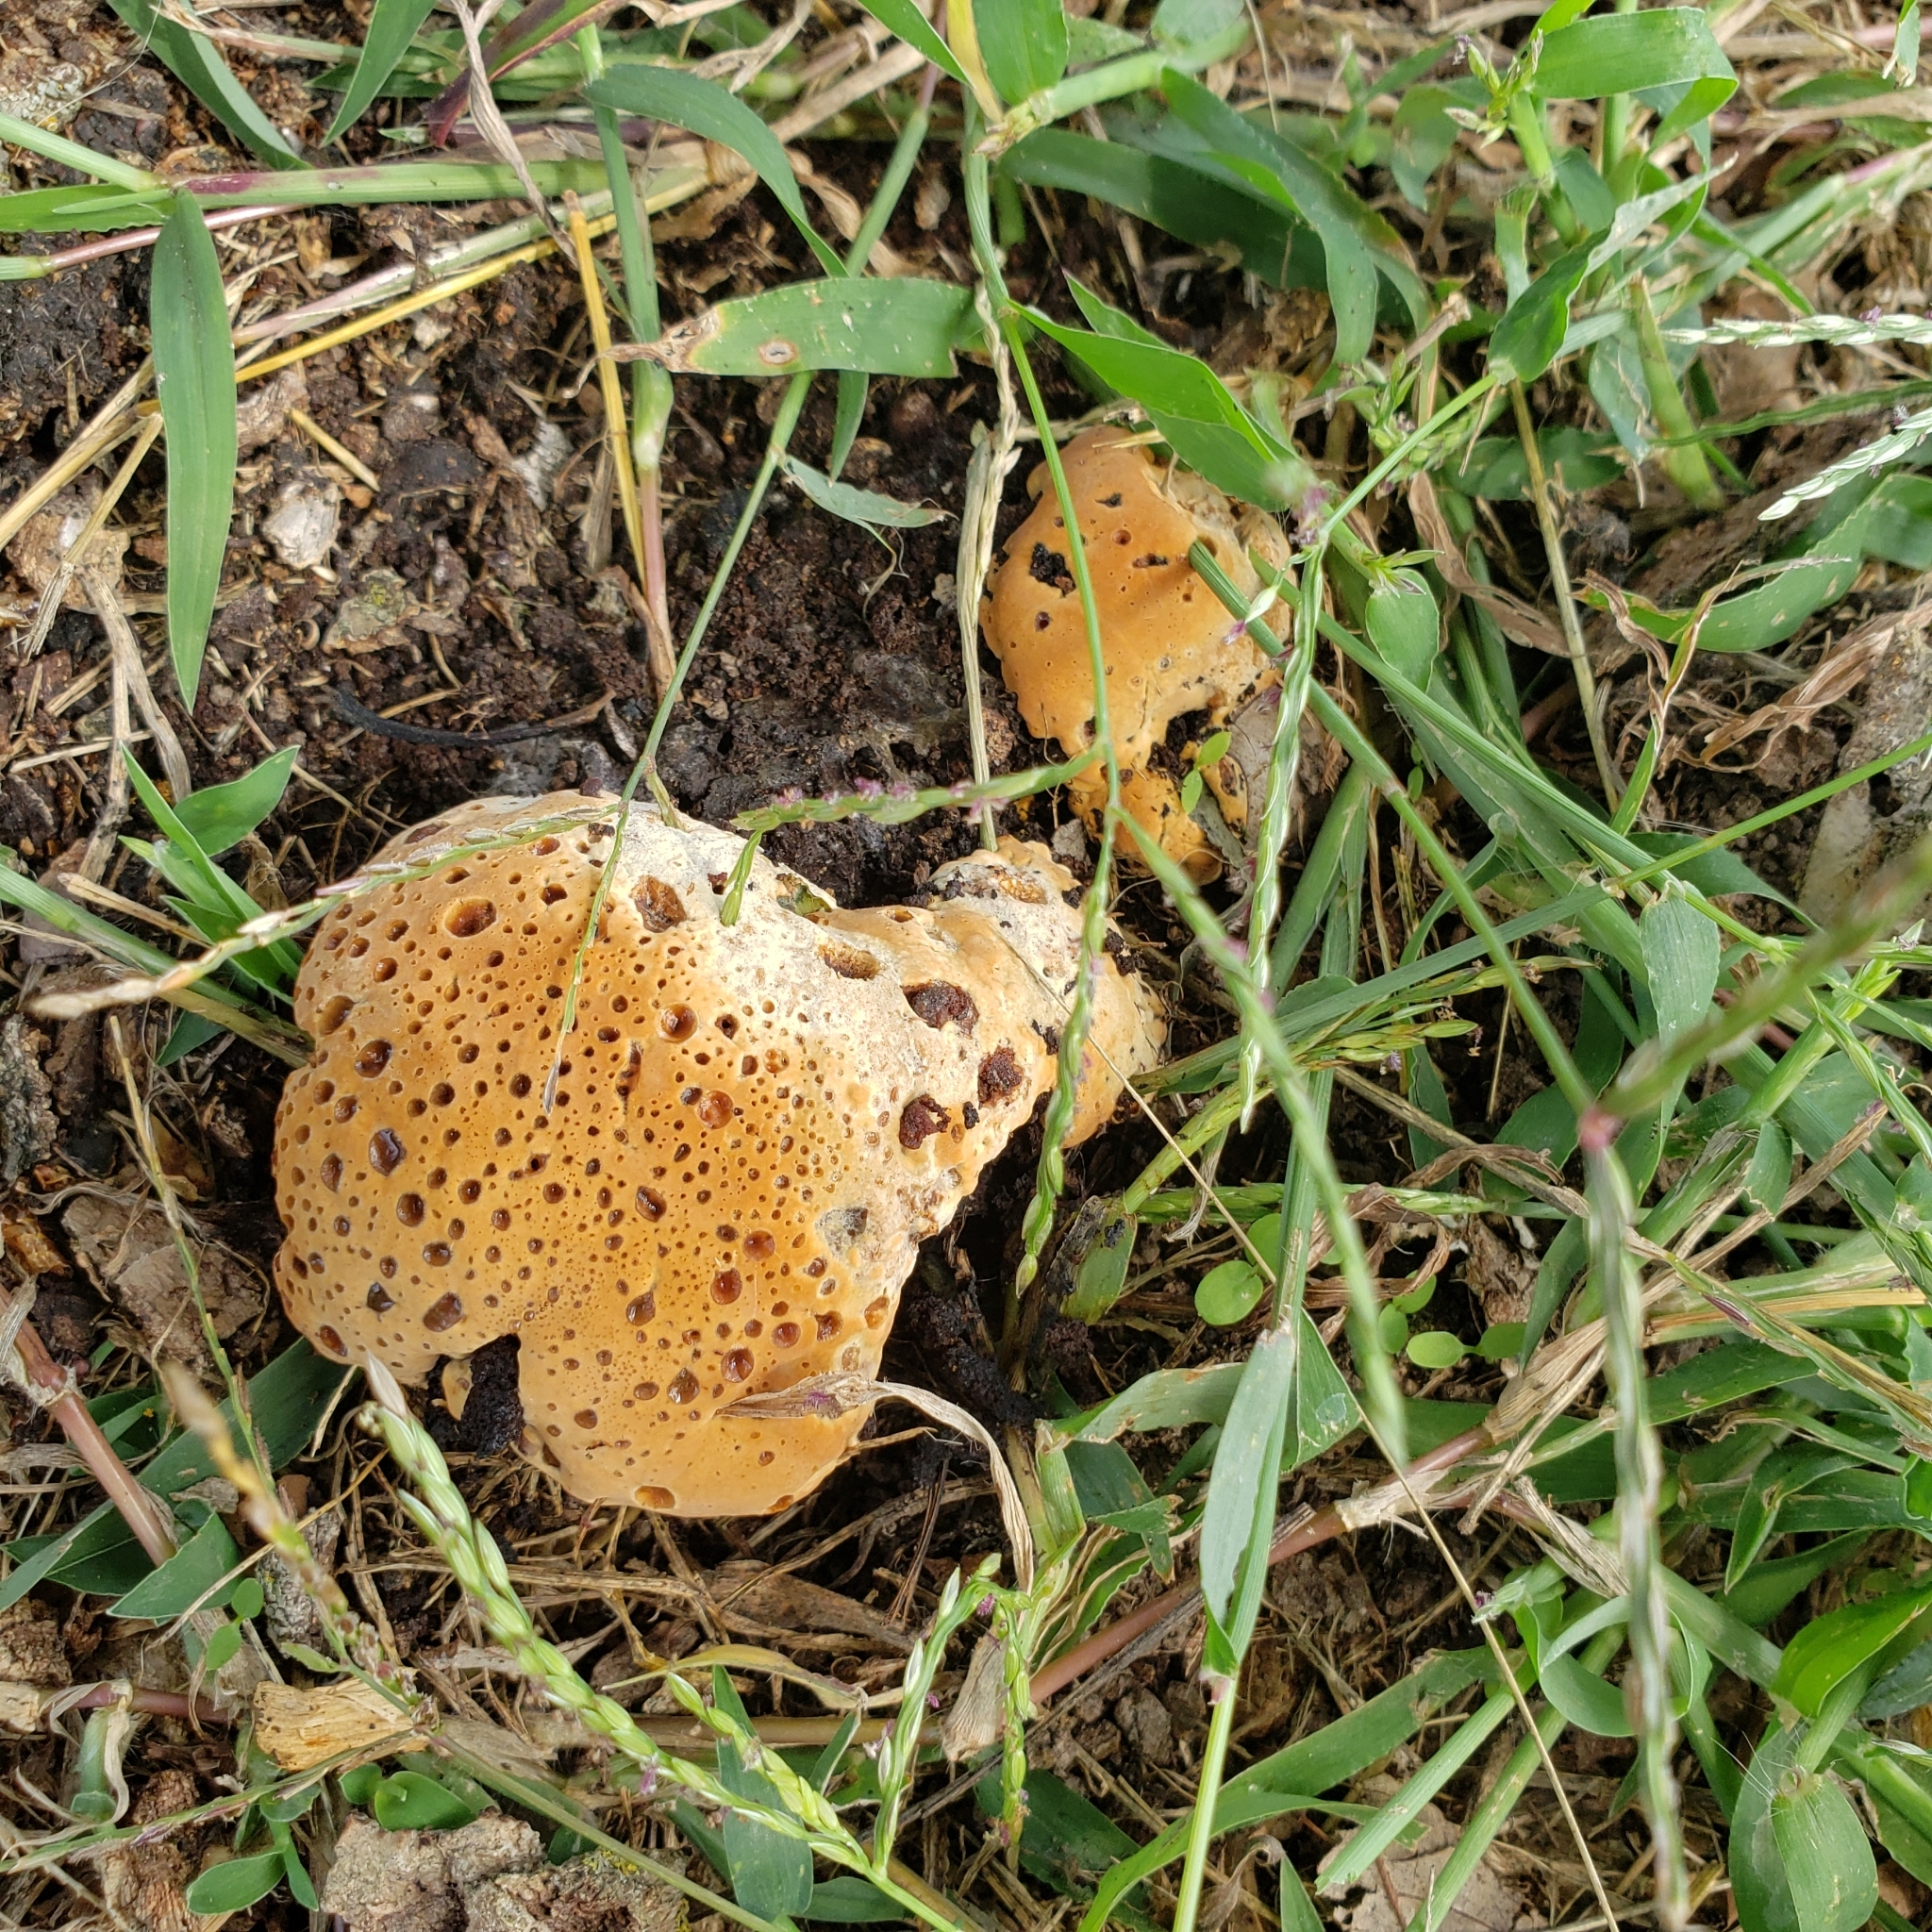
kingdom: Fungi
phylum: Basidiomycota
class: Agaricomycetes
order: Hymenochaetales
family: Hymenochaetaceae
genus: Pseudoinonotus
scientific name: Pseudoinonotus dryadeus
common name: Oak bracket
